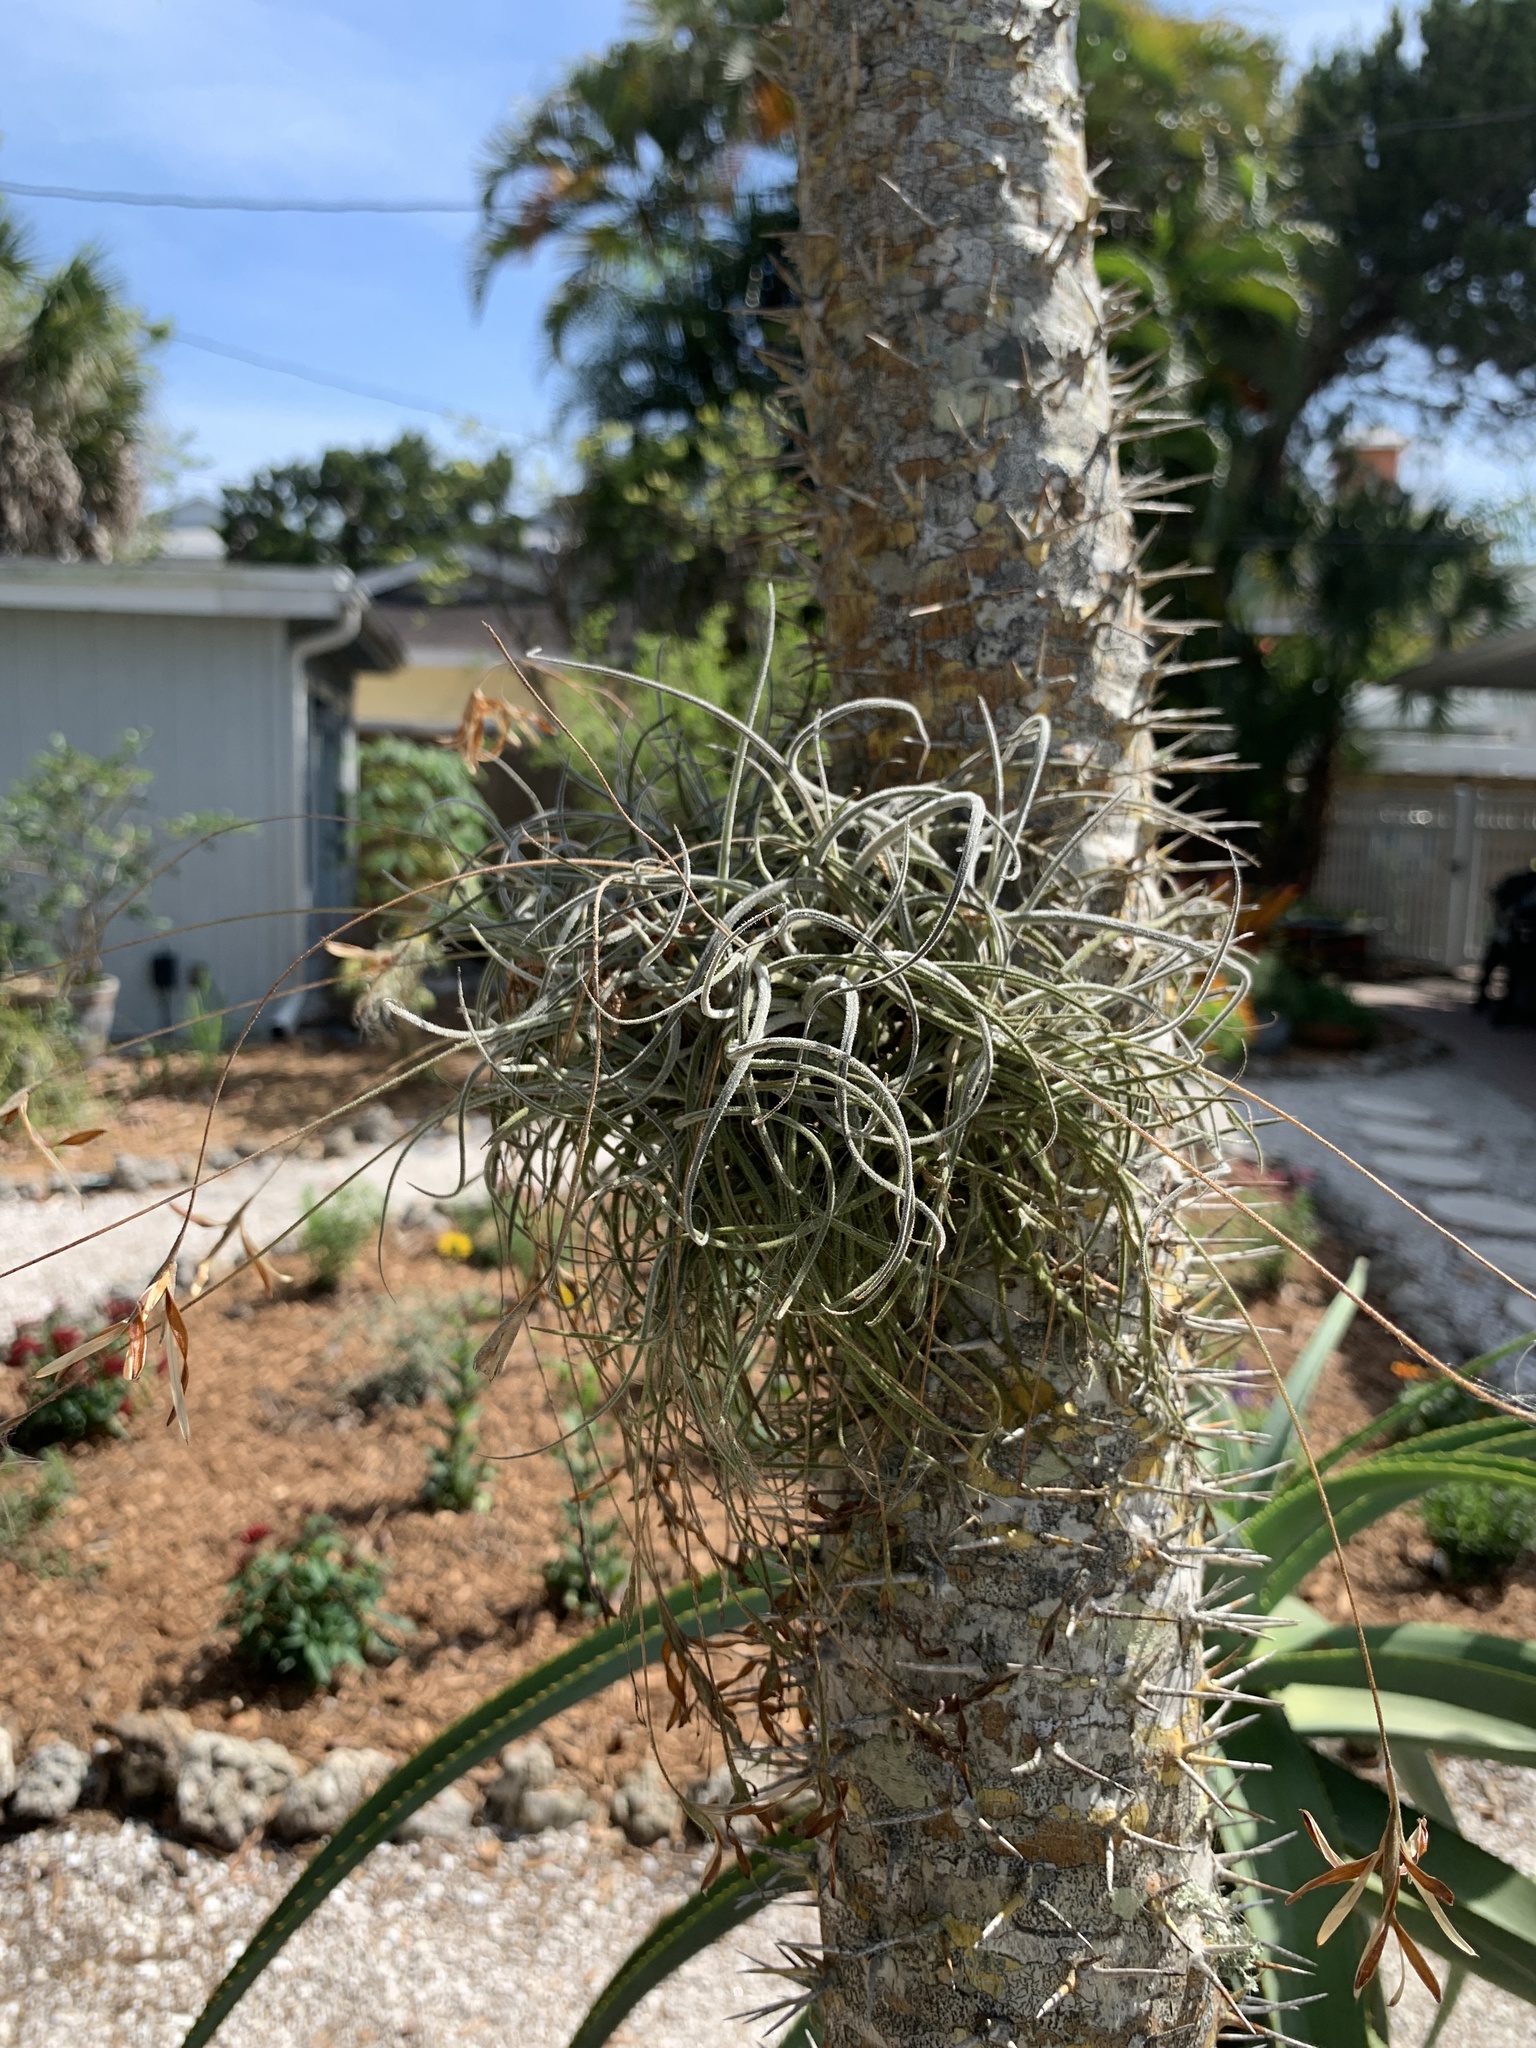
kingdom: Plantae
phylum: Tracheophyta
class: Liliopsida
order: Poales
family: Bromeliaceae
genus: Tillandsia
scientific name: Tillandsia recurvata
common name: Small ballmoss
